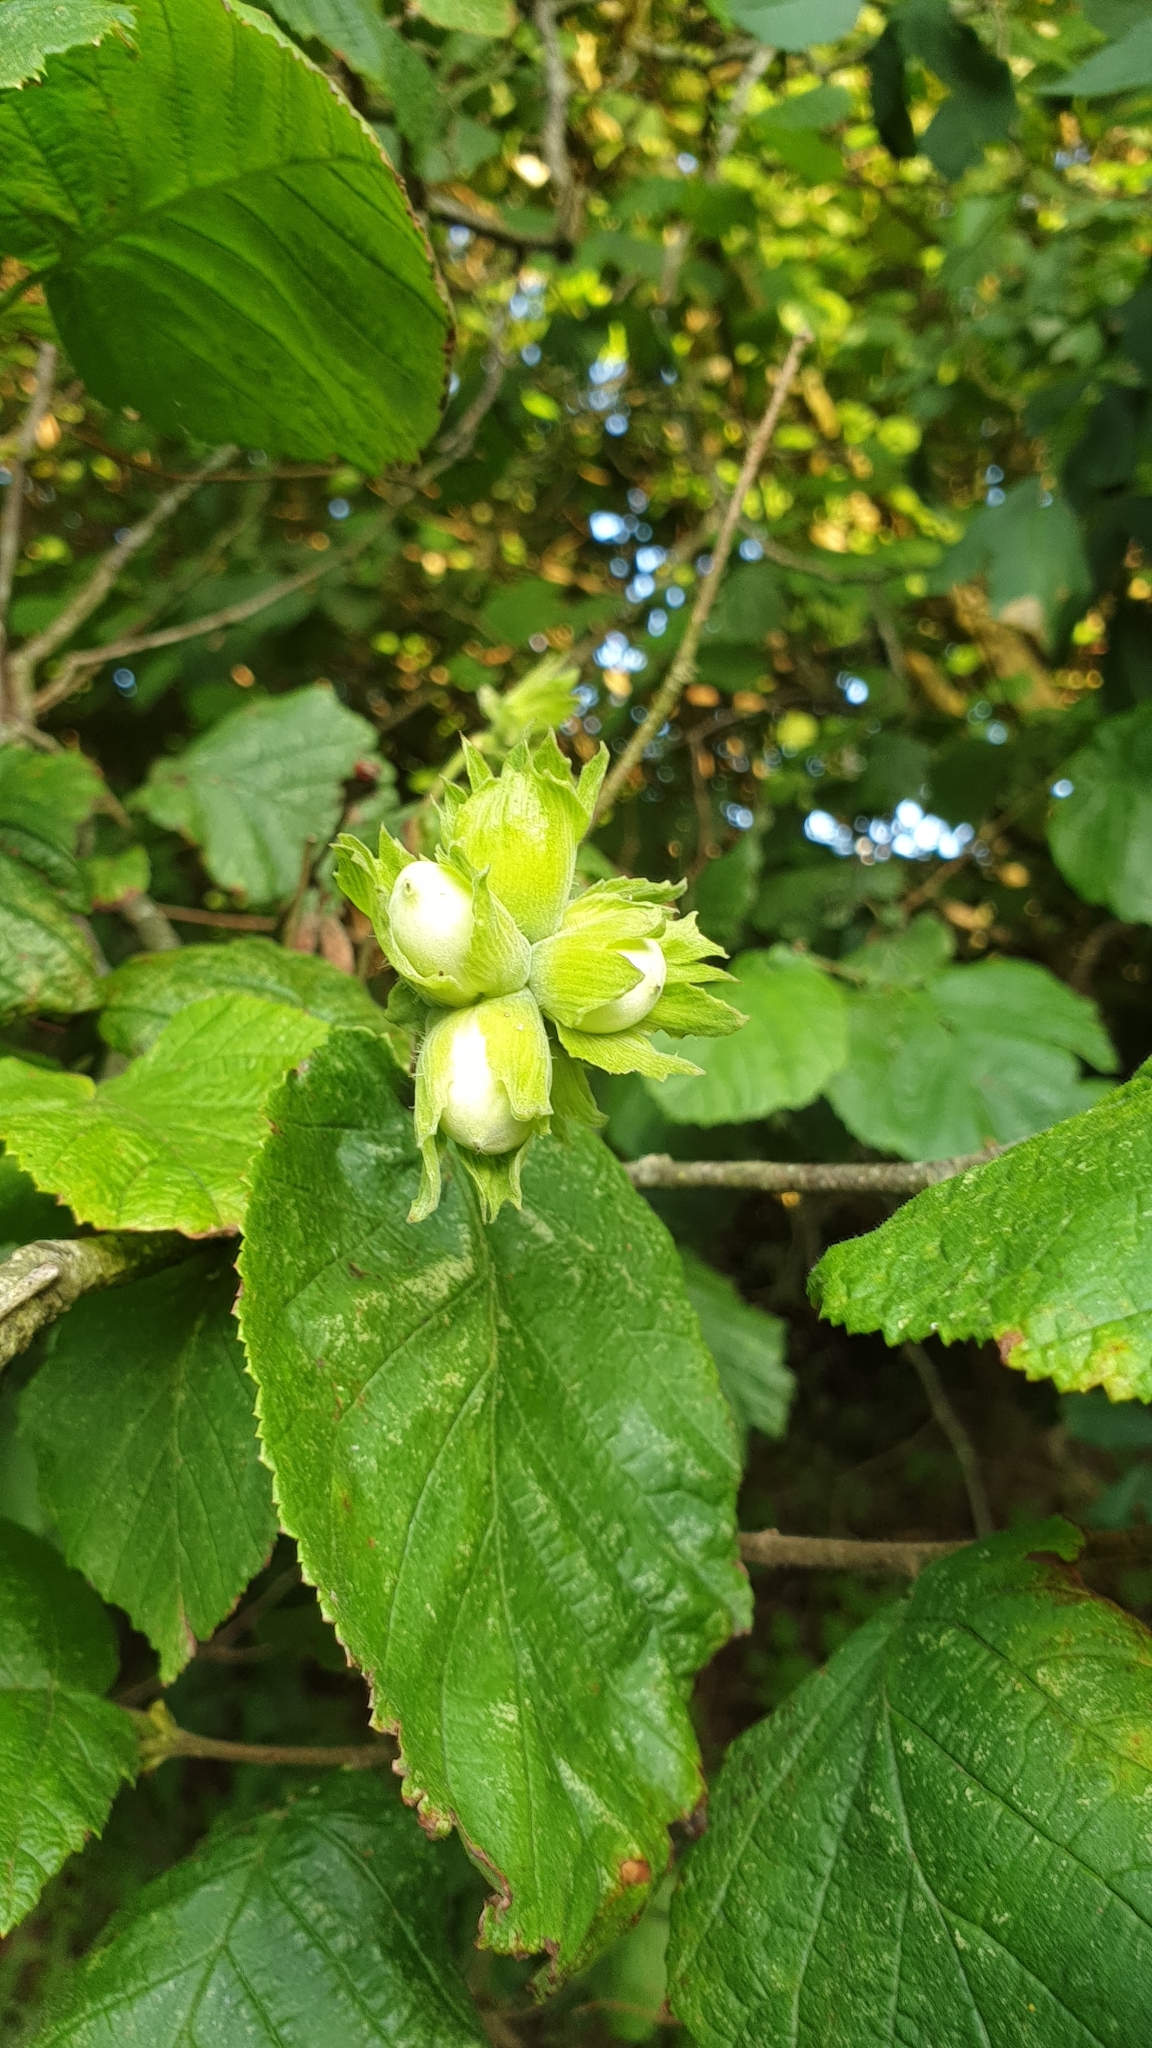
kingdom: Plantae
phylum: Tracheophyta
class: Magnoliopsida
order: Fagales
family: Betulaceae
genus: Corylus
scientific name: Corylus avellana
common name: European hazel
